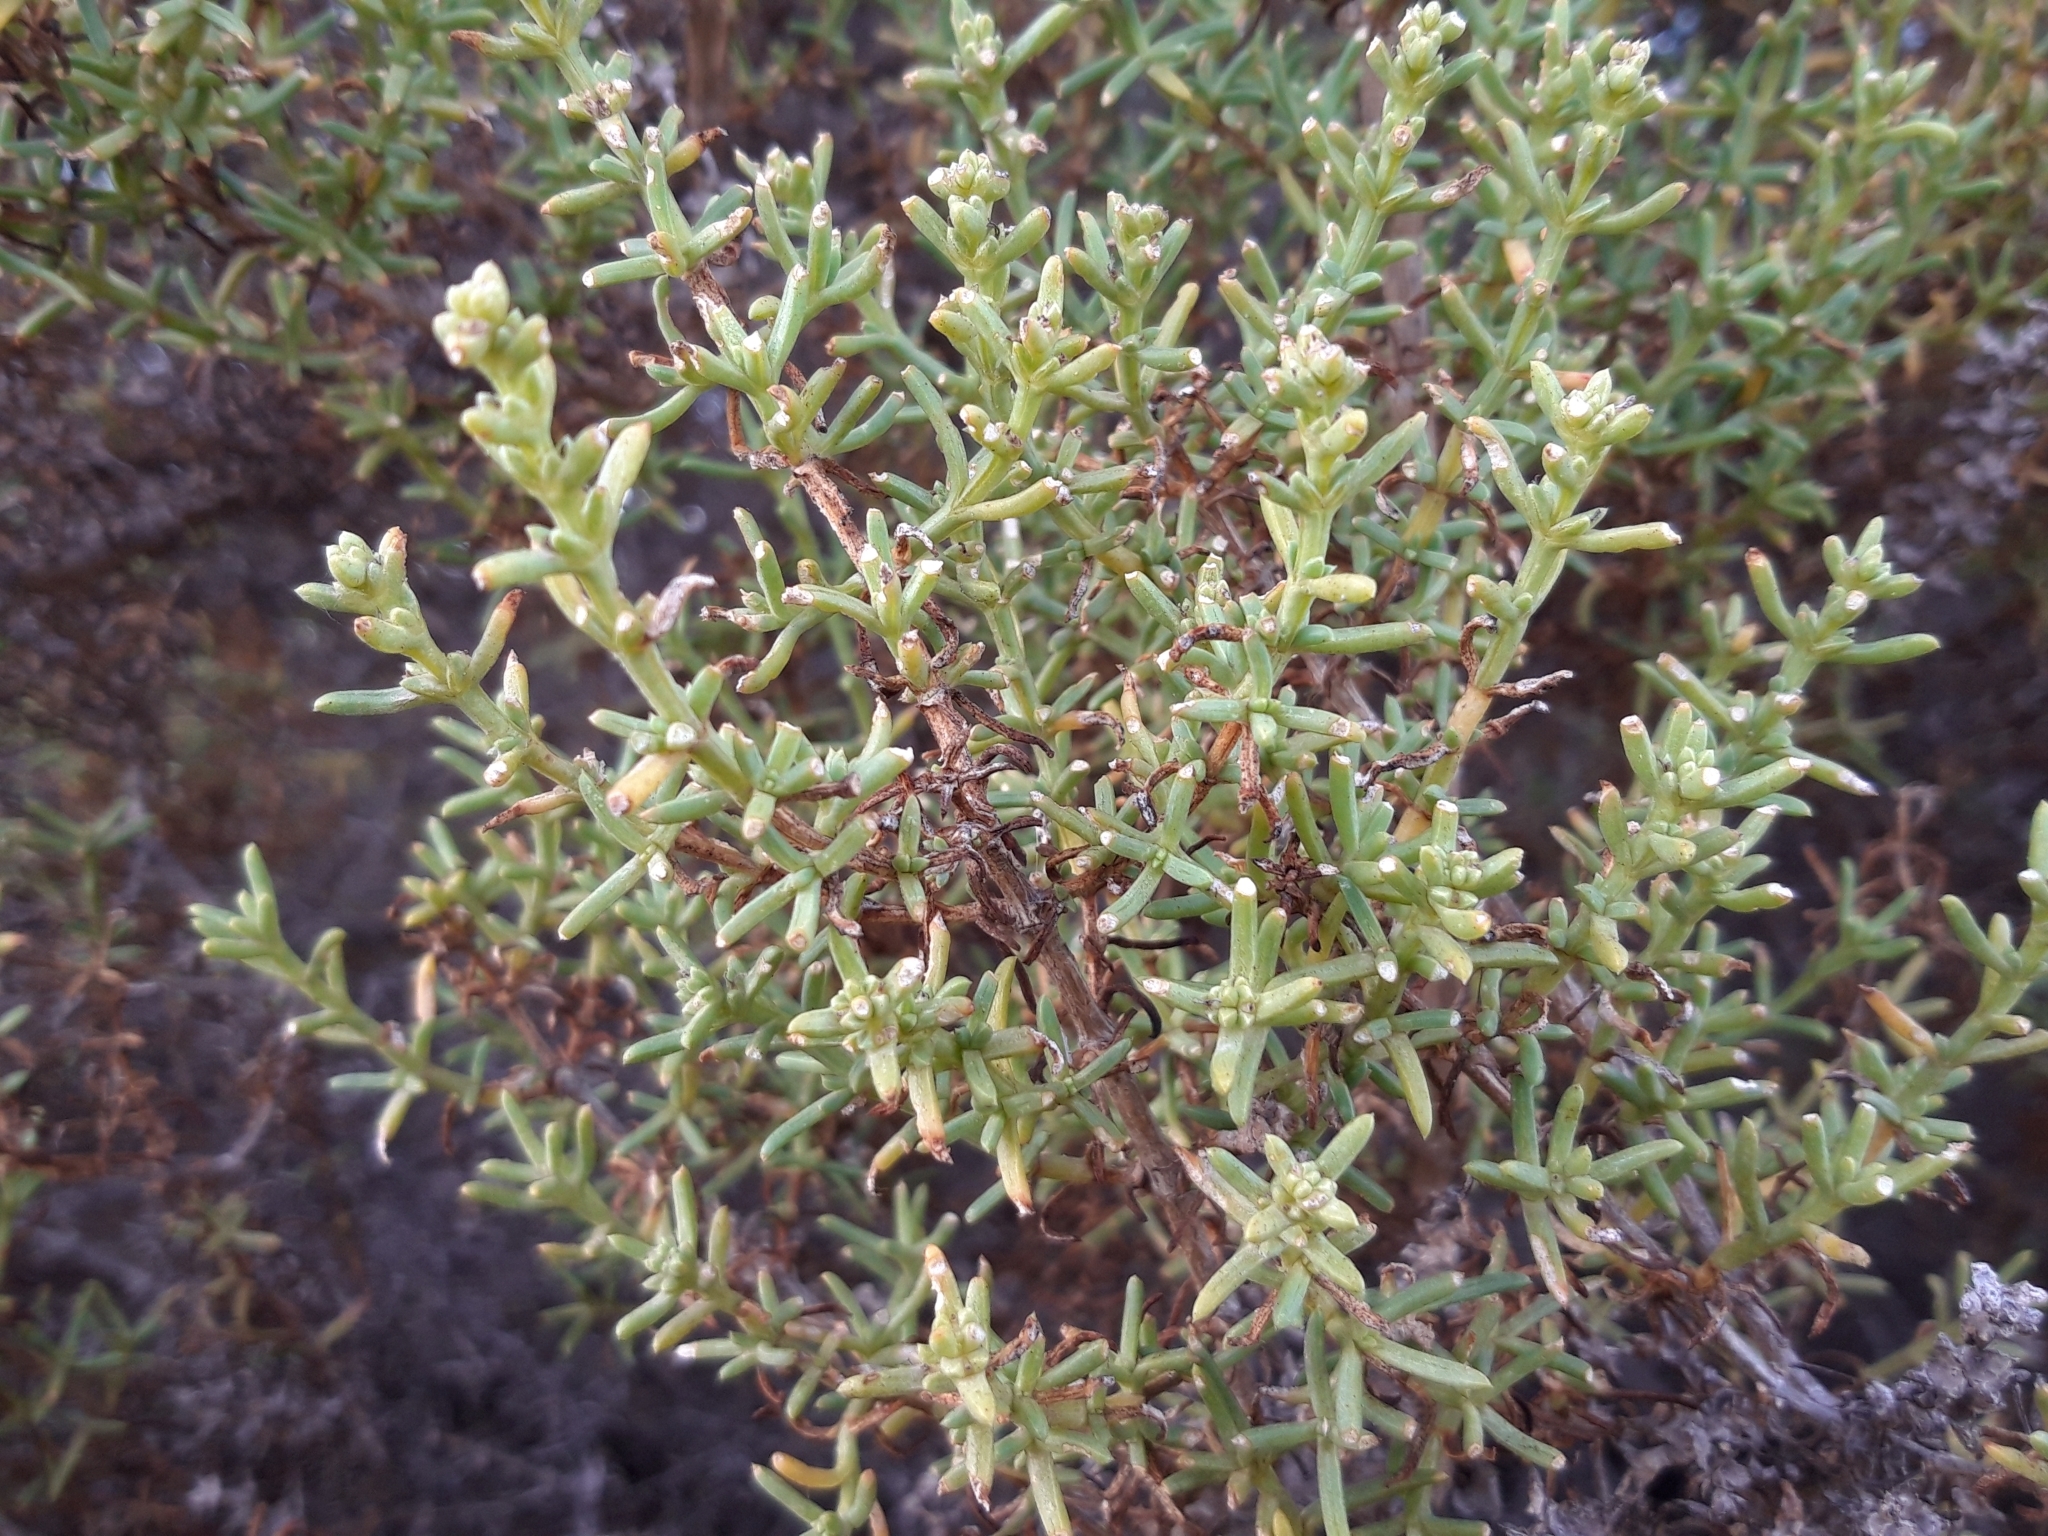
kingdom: Plantae
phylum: Tracheophyta
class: Magnoliopsida
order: Caryophyllales
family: Amaranthaceae
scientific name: Amaranthaceae
